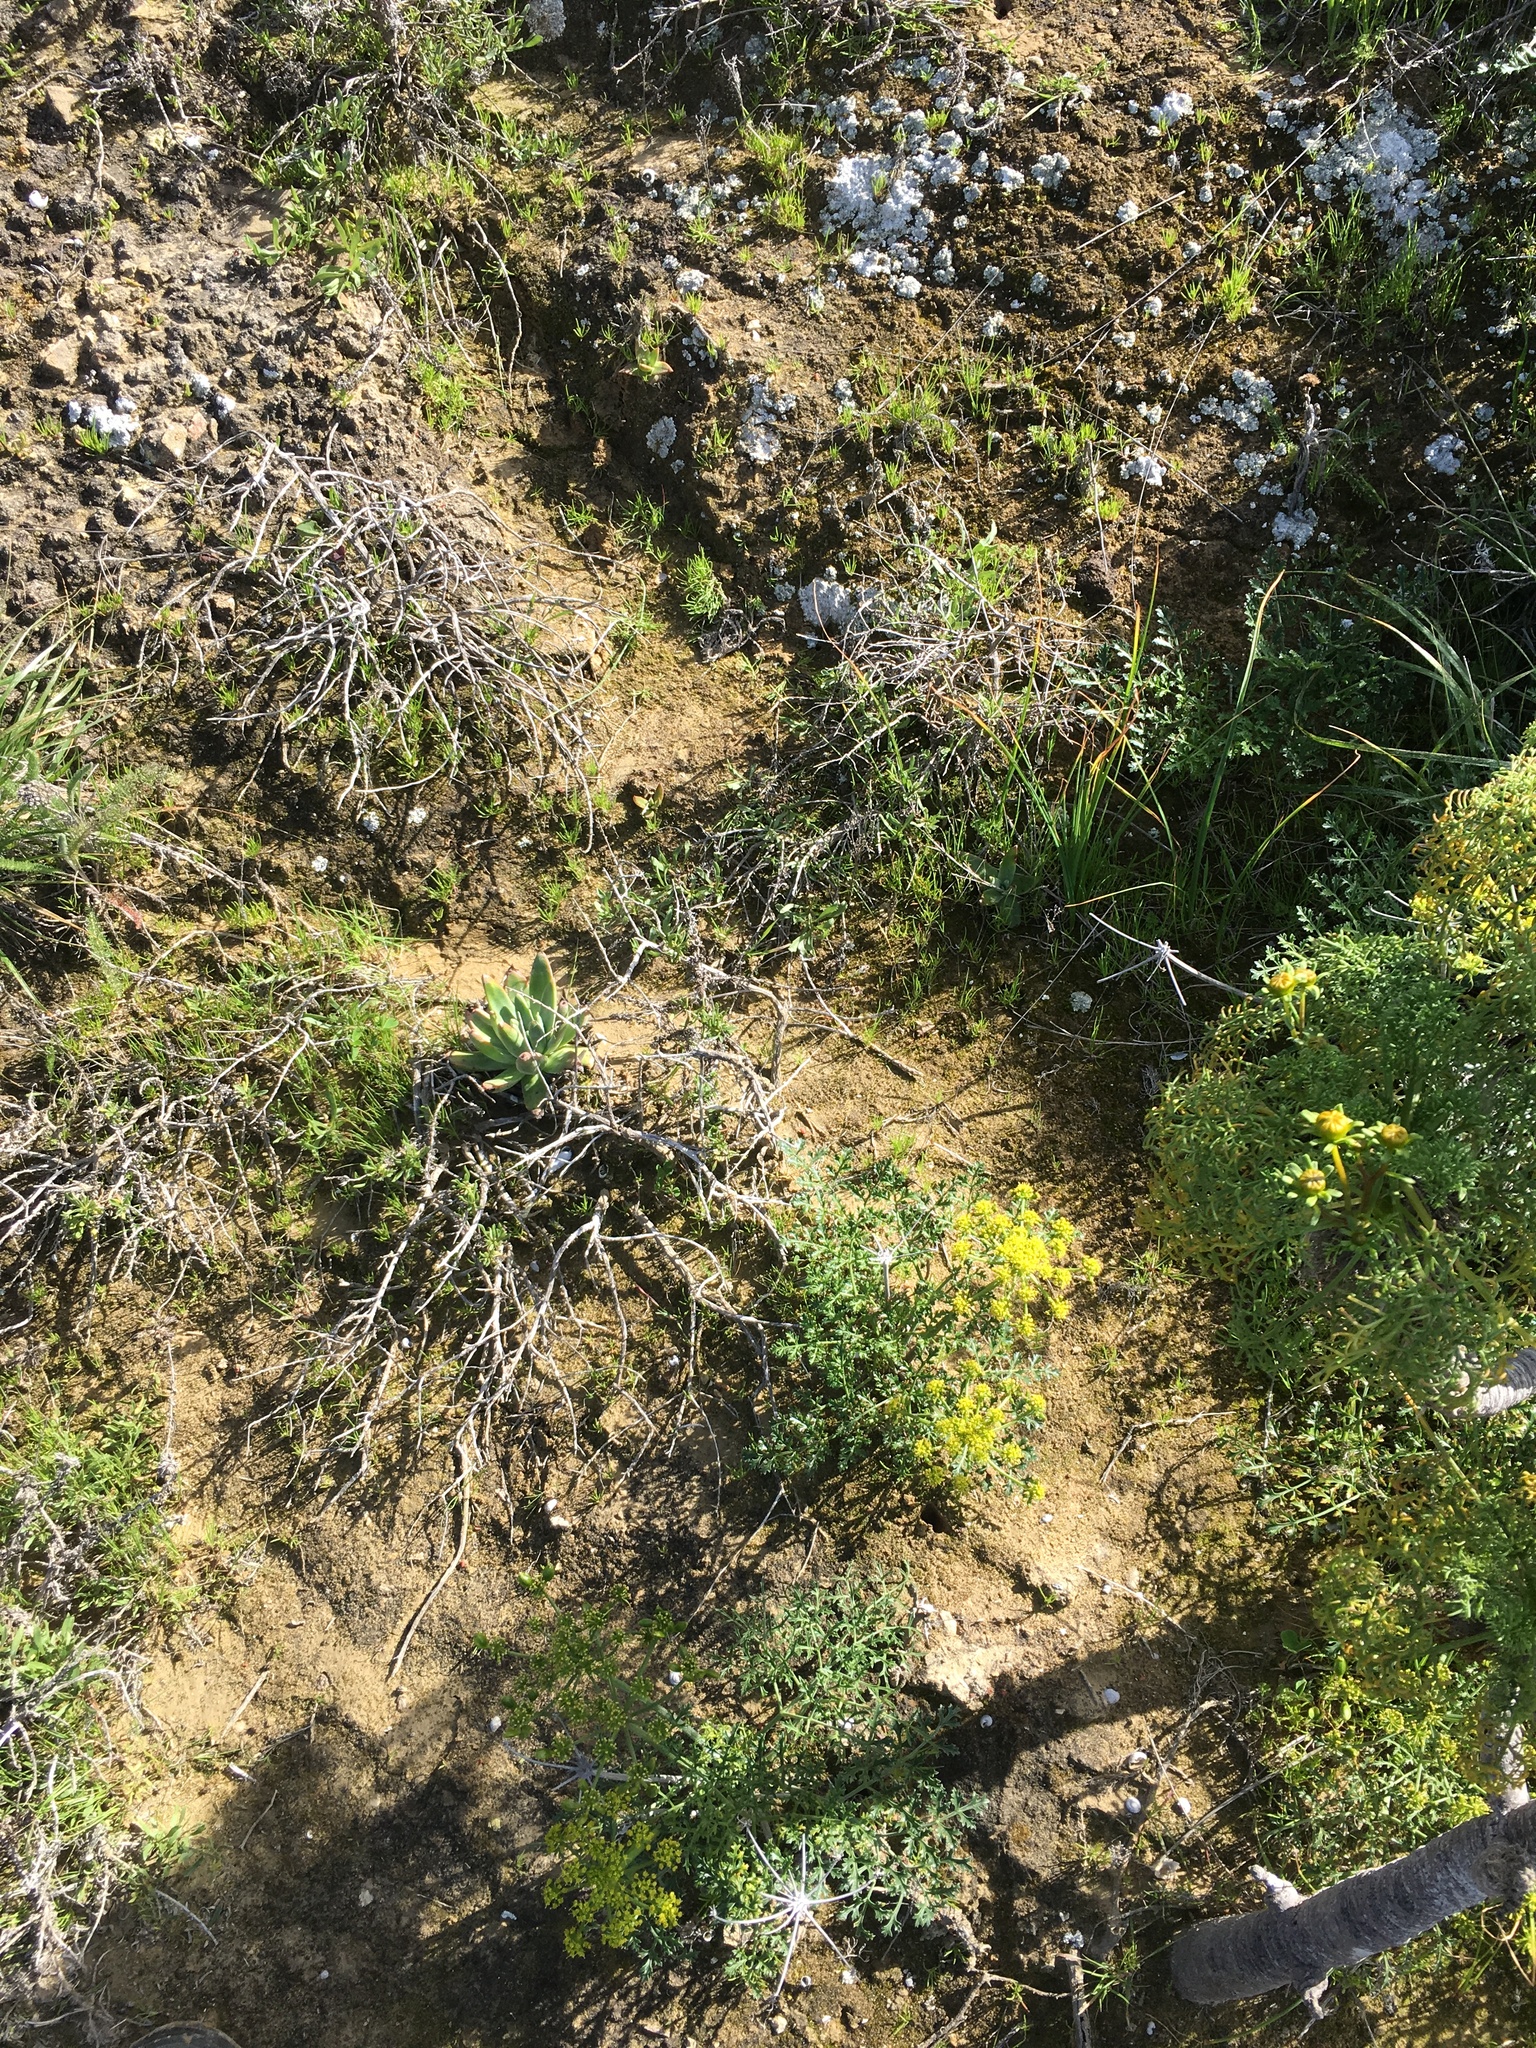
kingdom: Plantae
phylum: Tracheophyta
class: Magnoliopsida
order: Apiales
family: Apiaceae
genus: Lomatium
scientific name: Lomatium insulare
